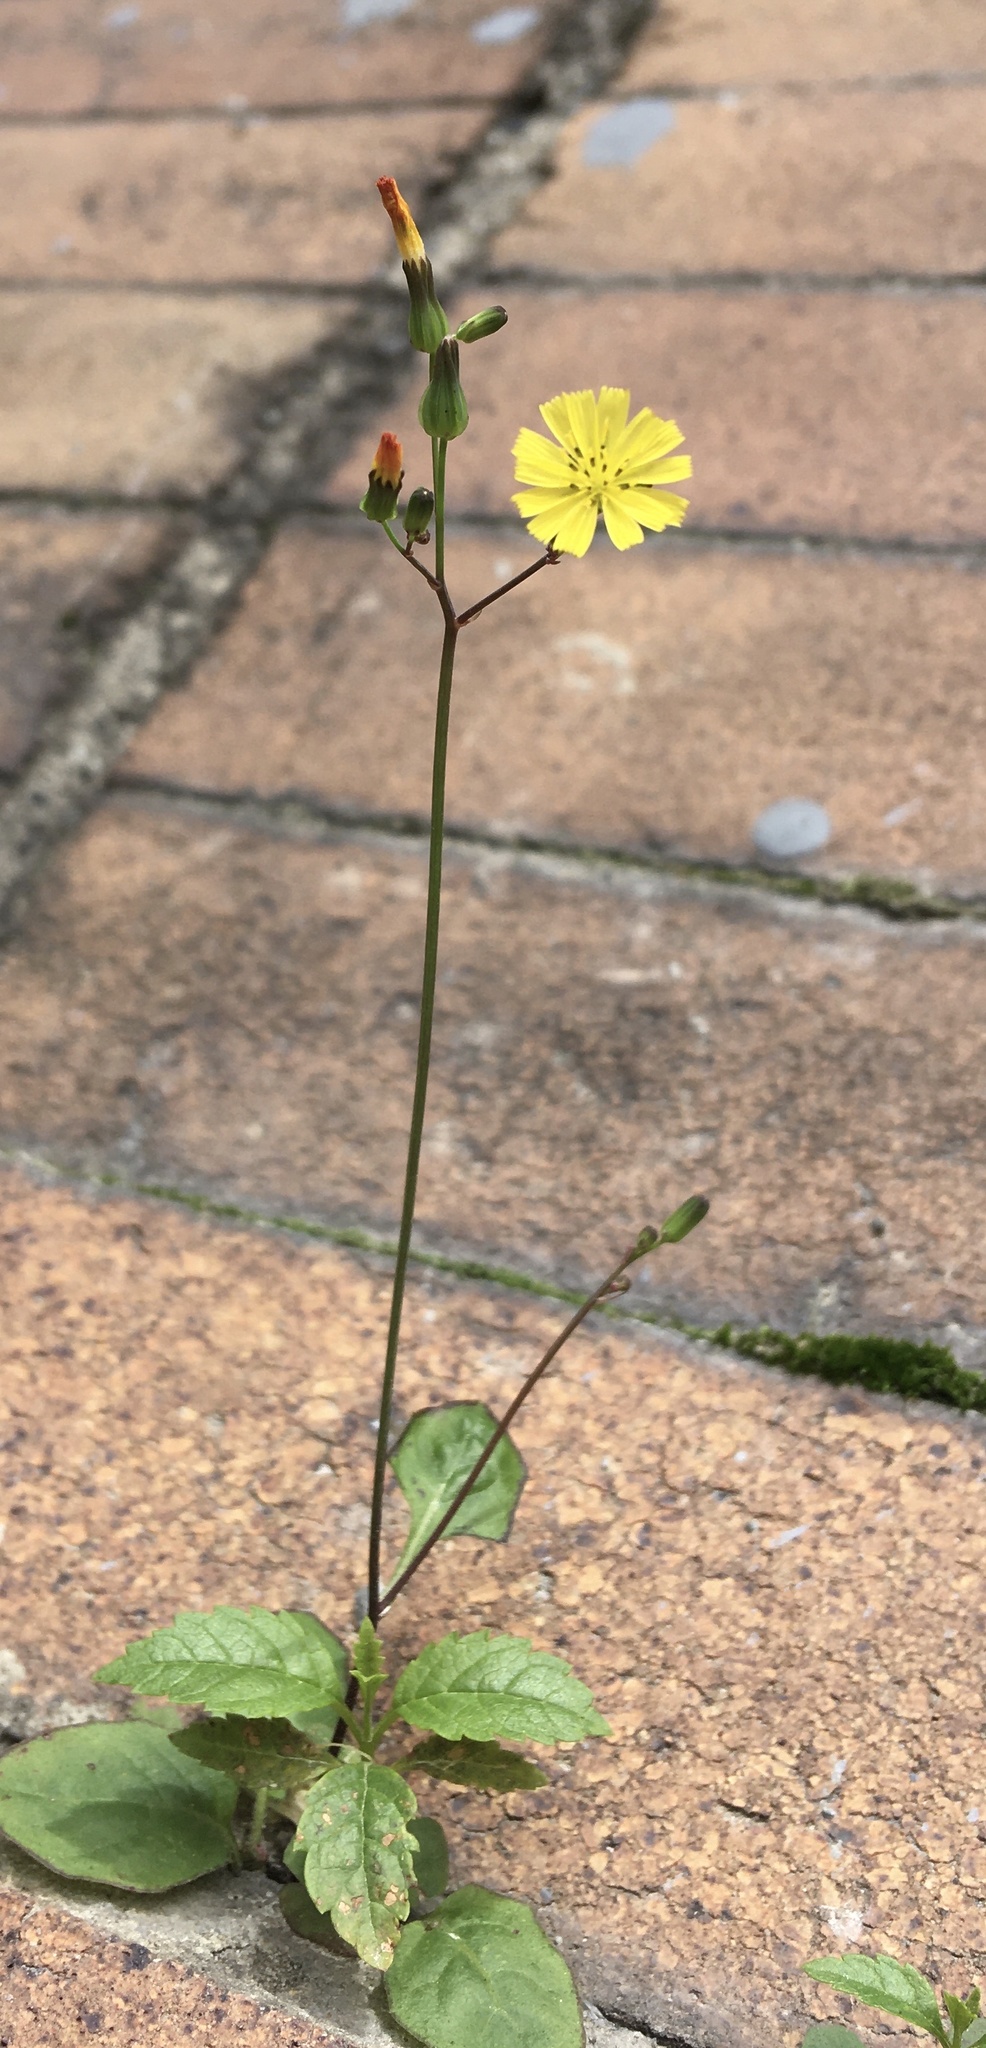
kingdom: Plantae
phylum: Tracheophyta
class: Magnoliopsida
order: Asterales
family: Asteraceae
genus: Youngia
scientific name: Youngia japonica
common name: Oriental false hawksbeard
